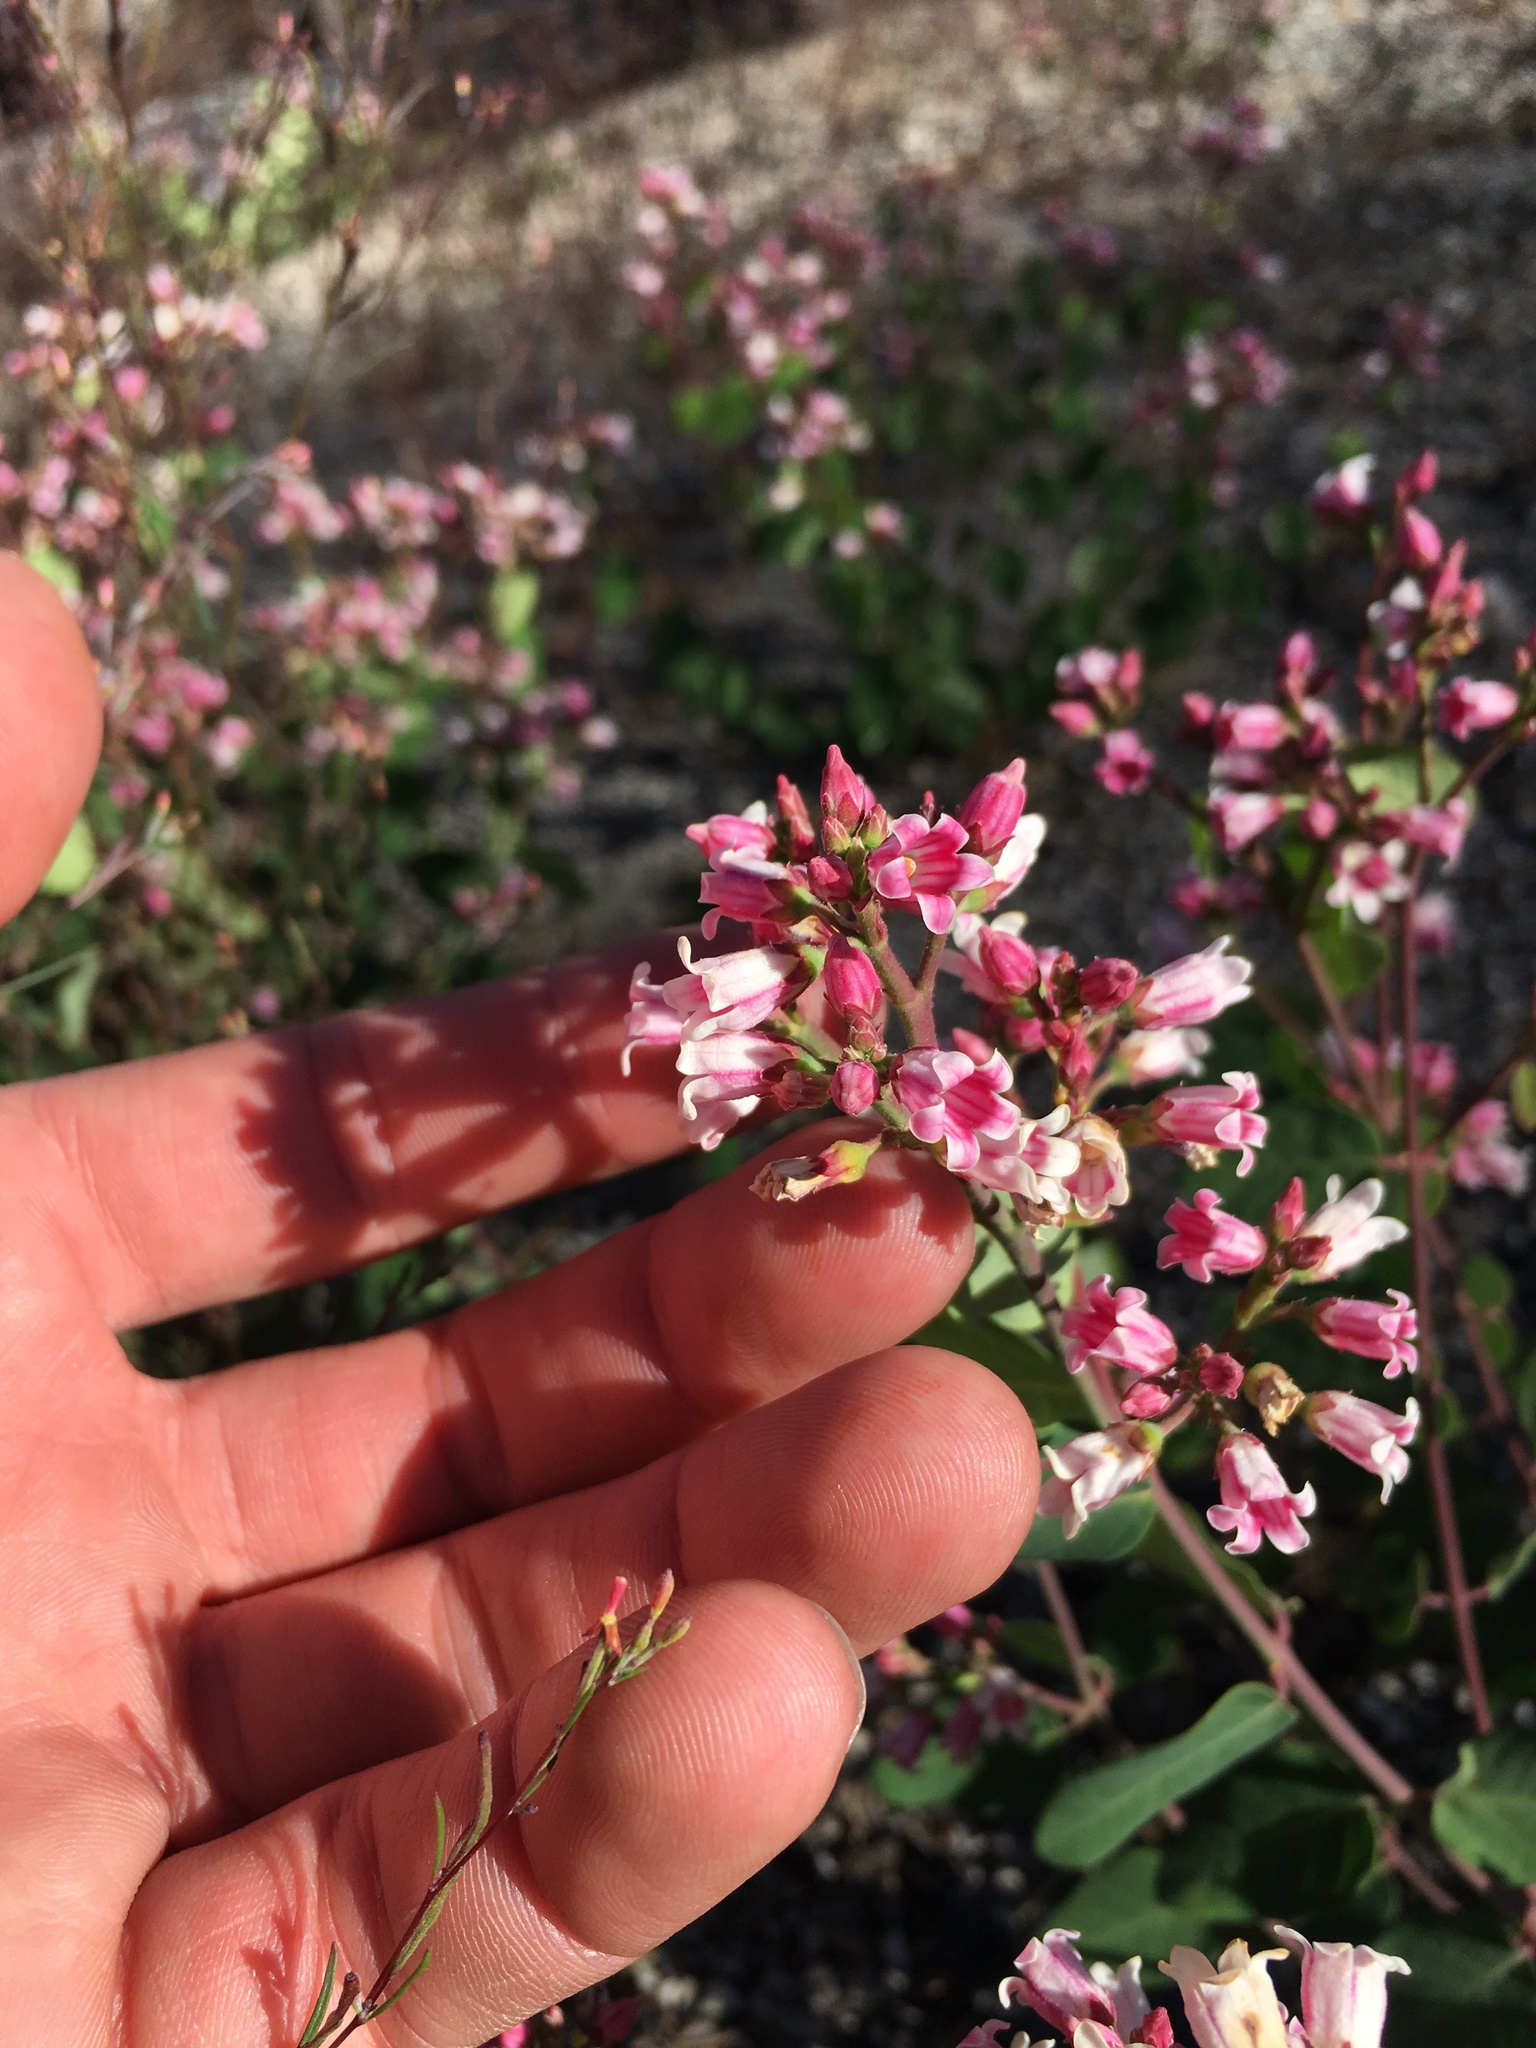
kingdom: Plantae
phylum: Tracheophyta
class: Magnoliopsida
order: Gentianales
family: Apocynaceae
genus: Apocynum
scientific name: Apocynum androsaemifolium
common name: Spreading dogbane
